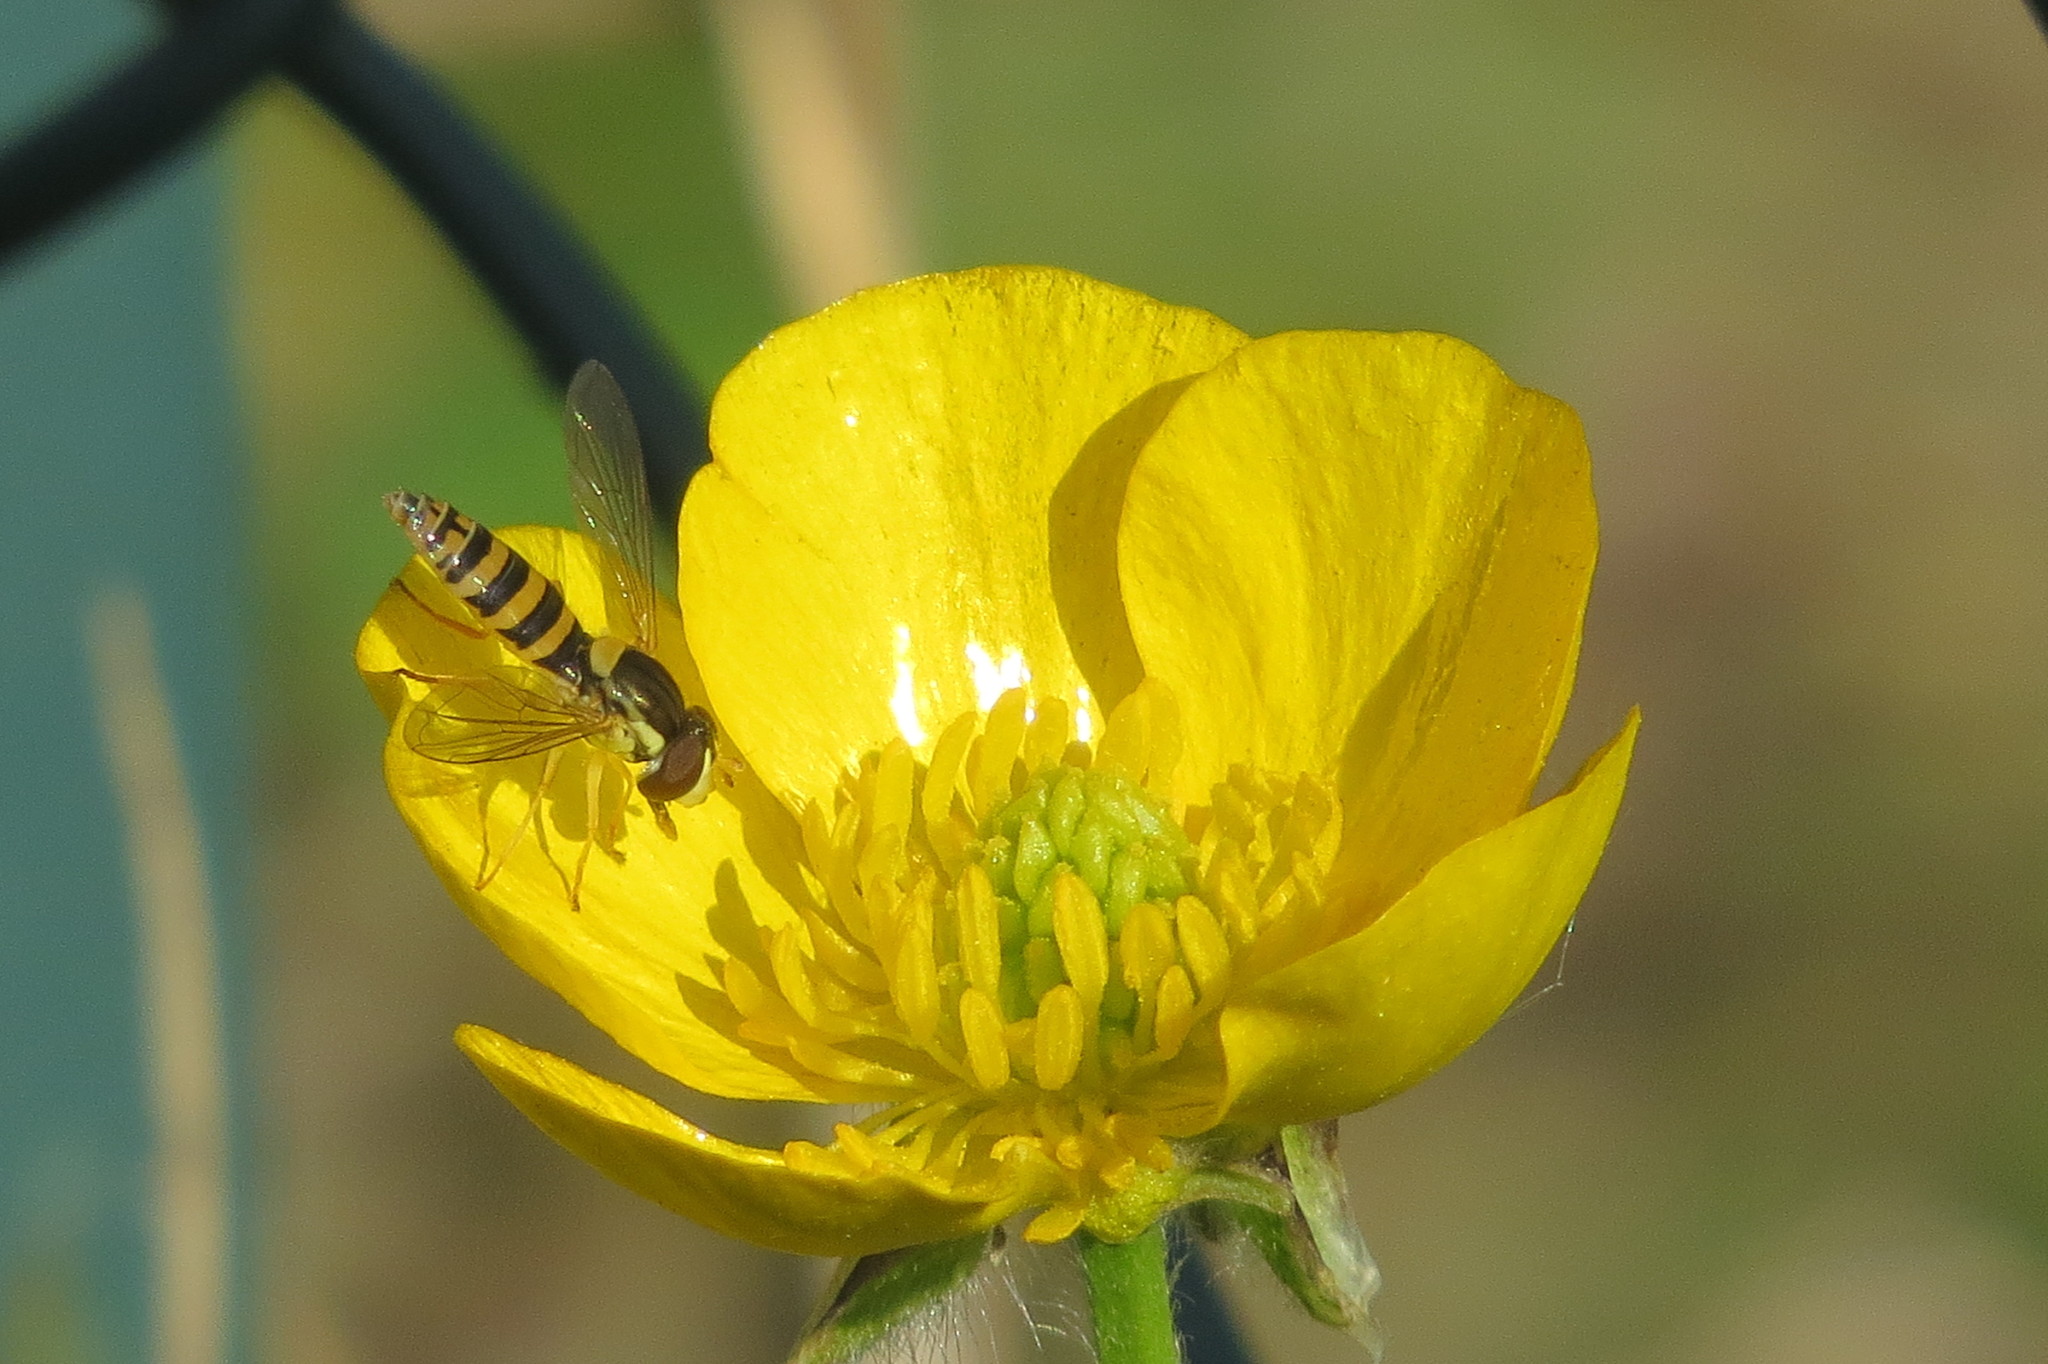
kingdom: Animalia
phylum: Arthropoda
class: Insecta
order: Diptera
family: Syrphidae
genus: Sphaerophoria
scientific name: Sphaerophoria
